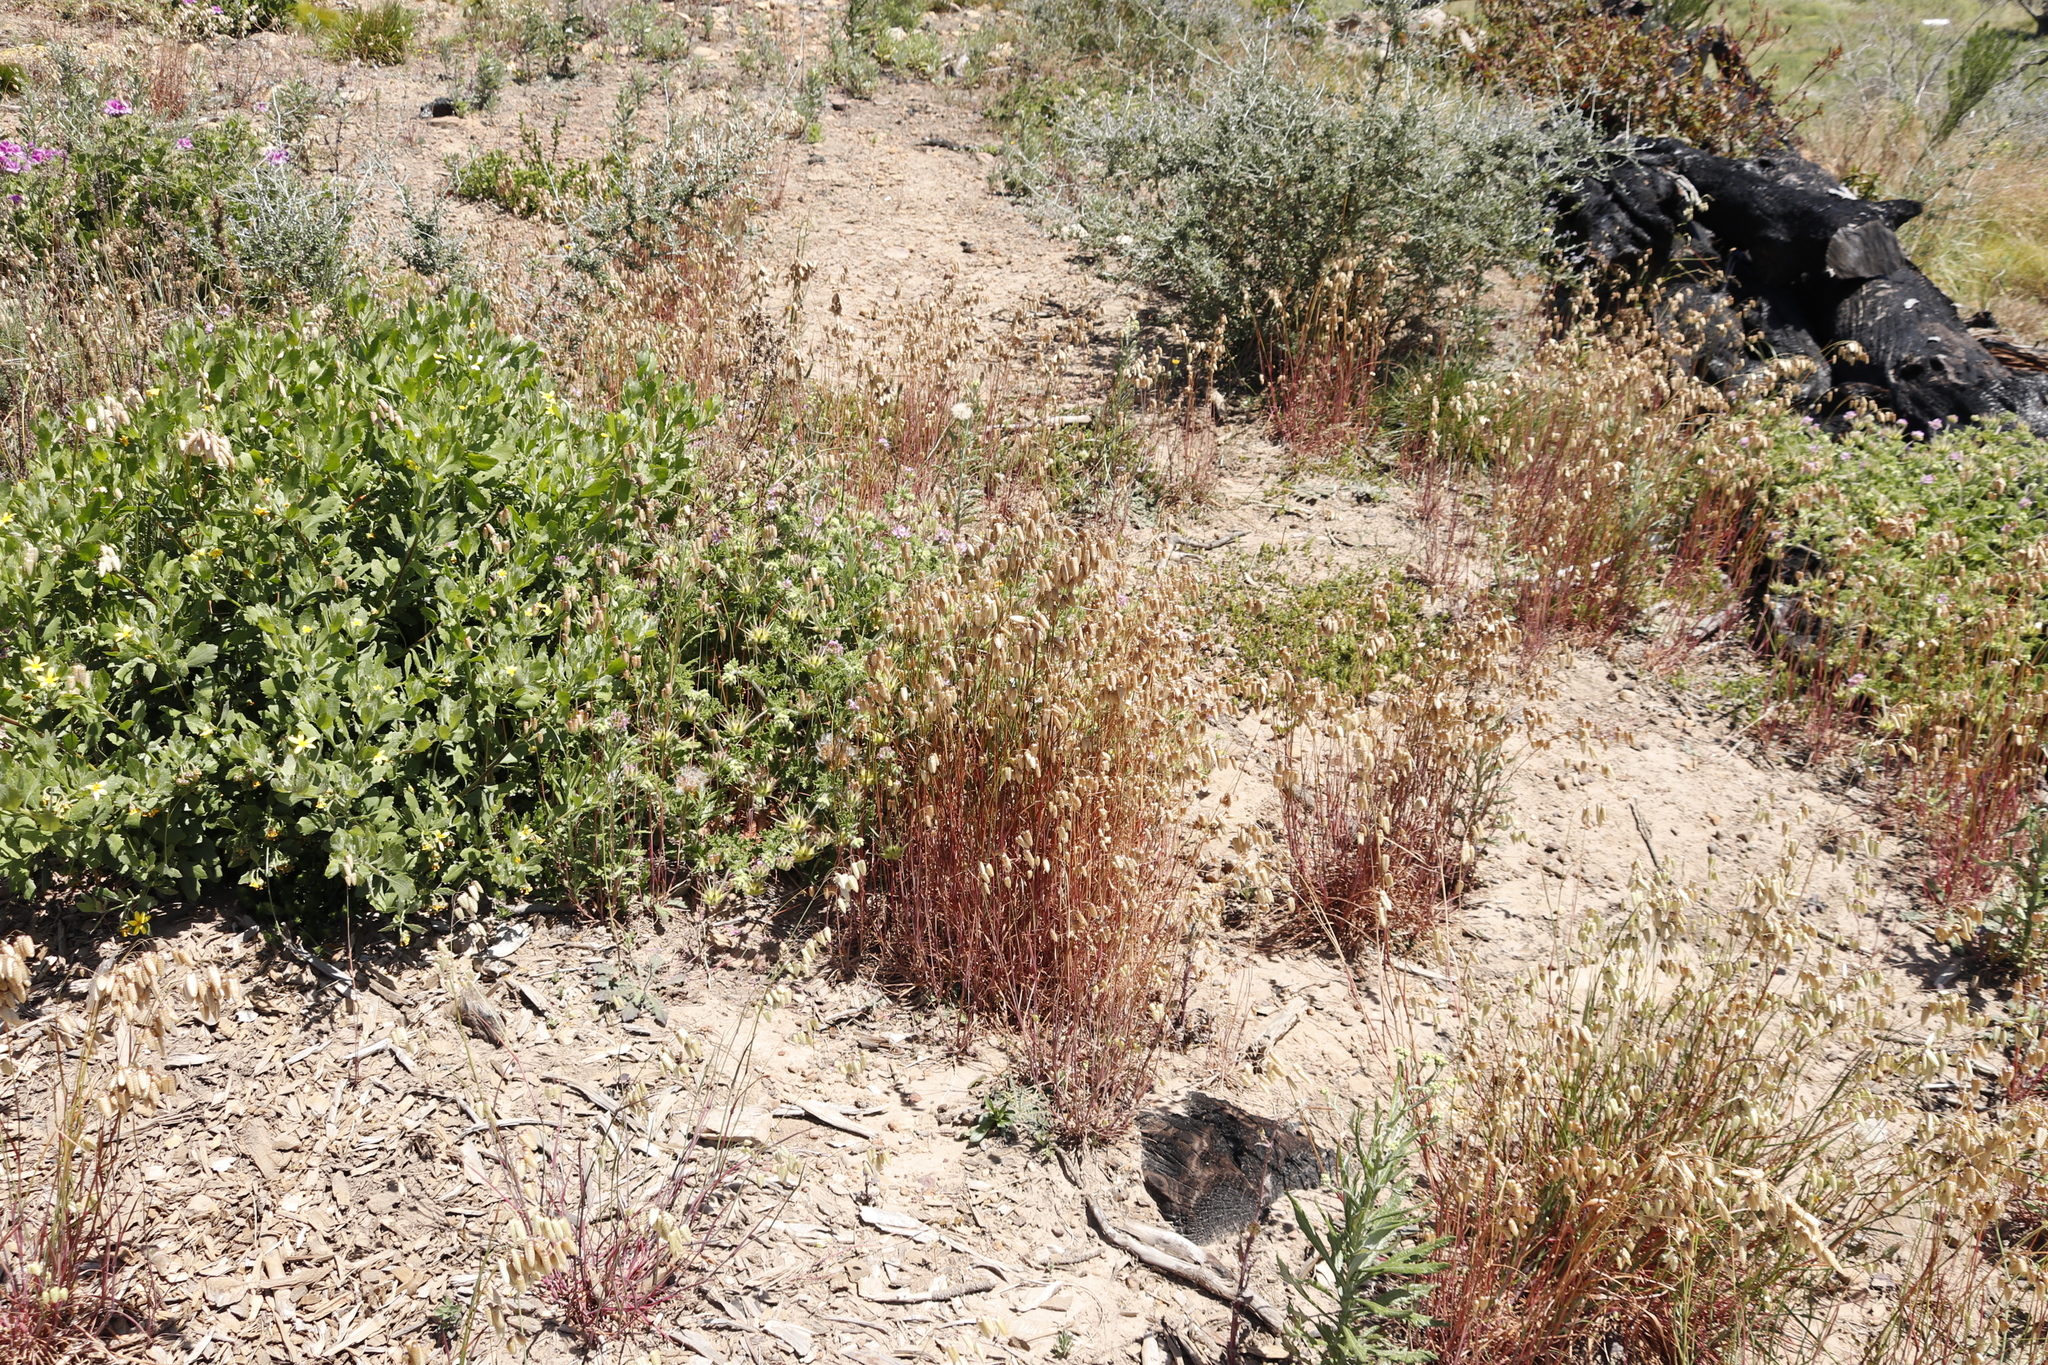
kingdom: Plantae
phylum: Tracheophyta
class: Liliopsida
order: Poales
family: Poaceae
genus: Briza
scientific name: Briza maxima
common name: Big quakinggrass
